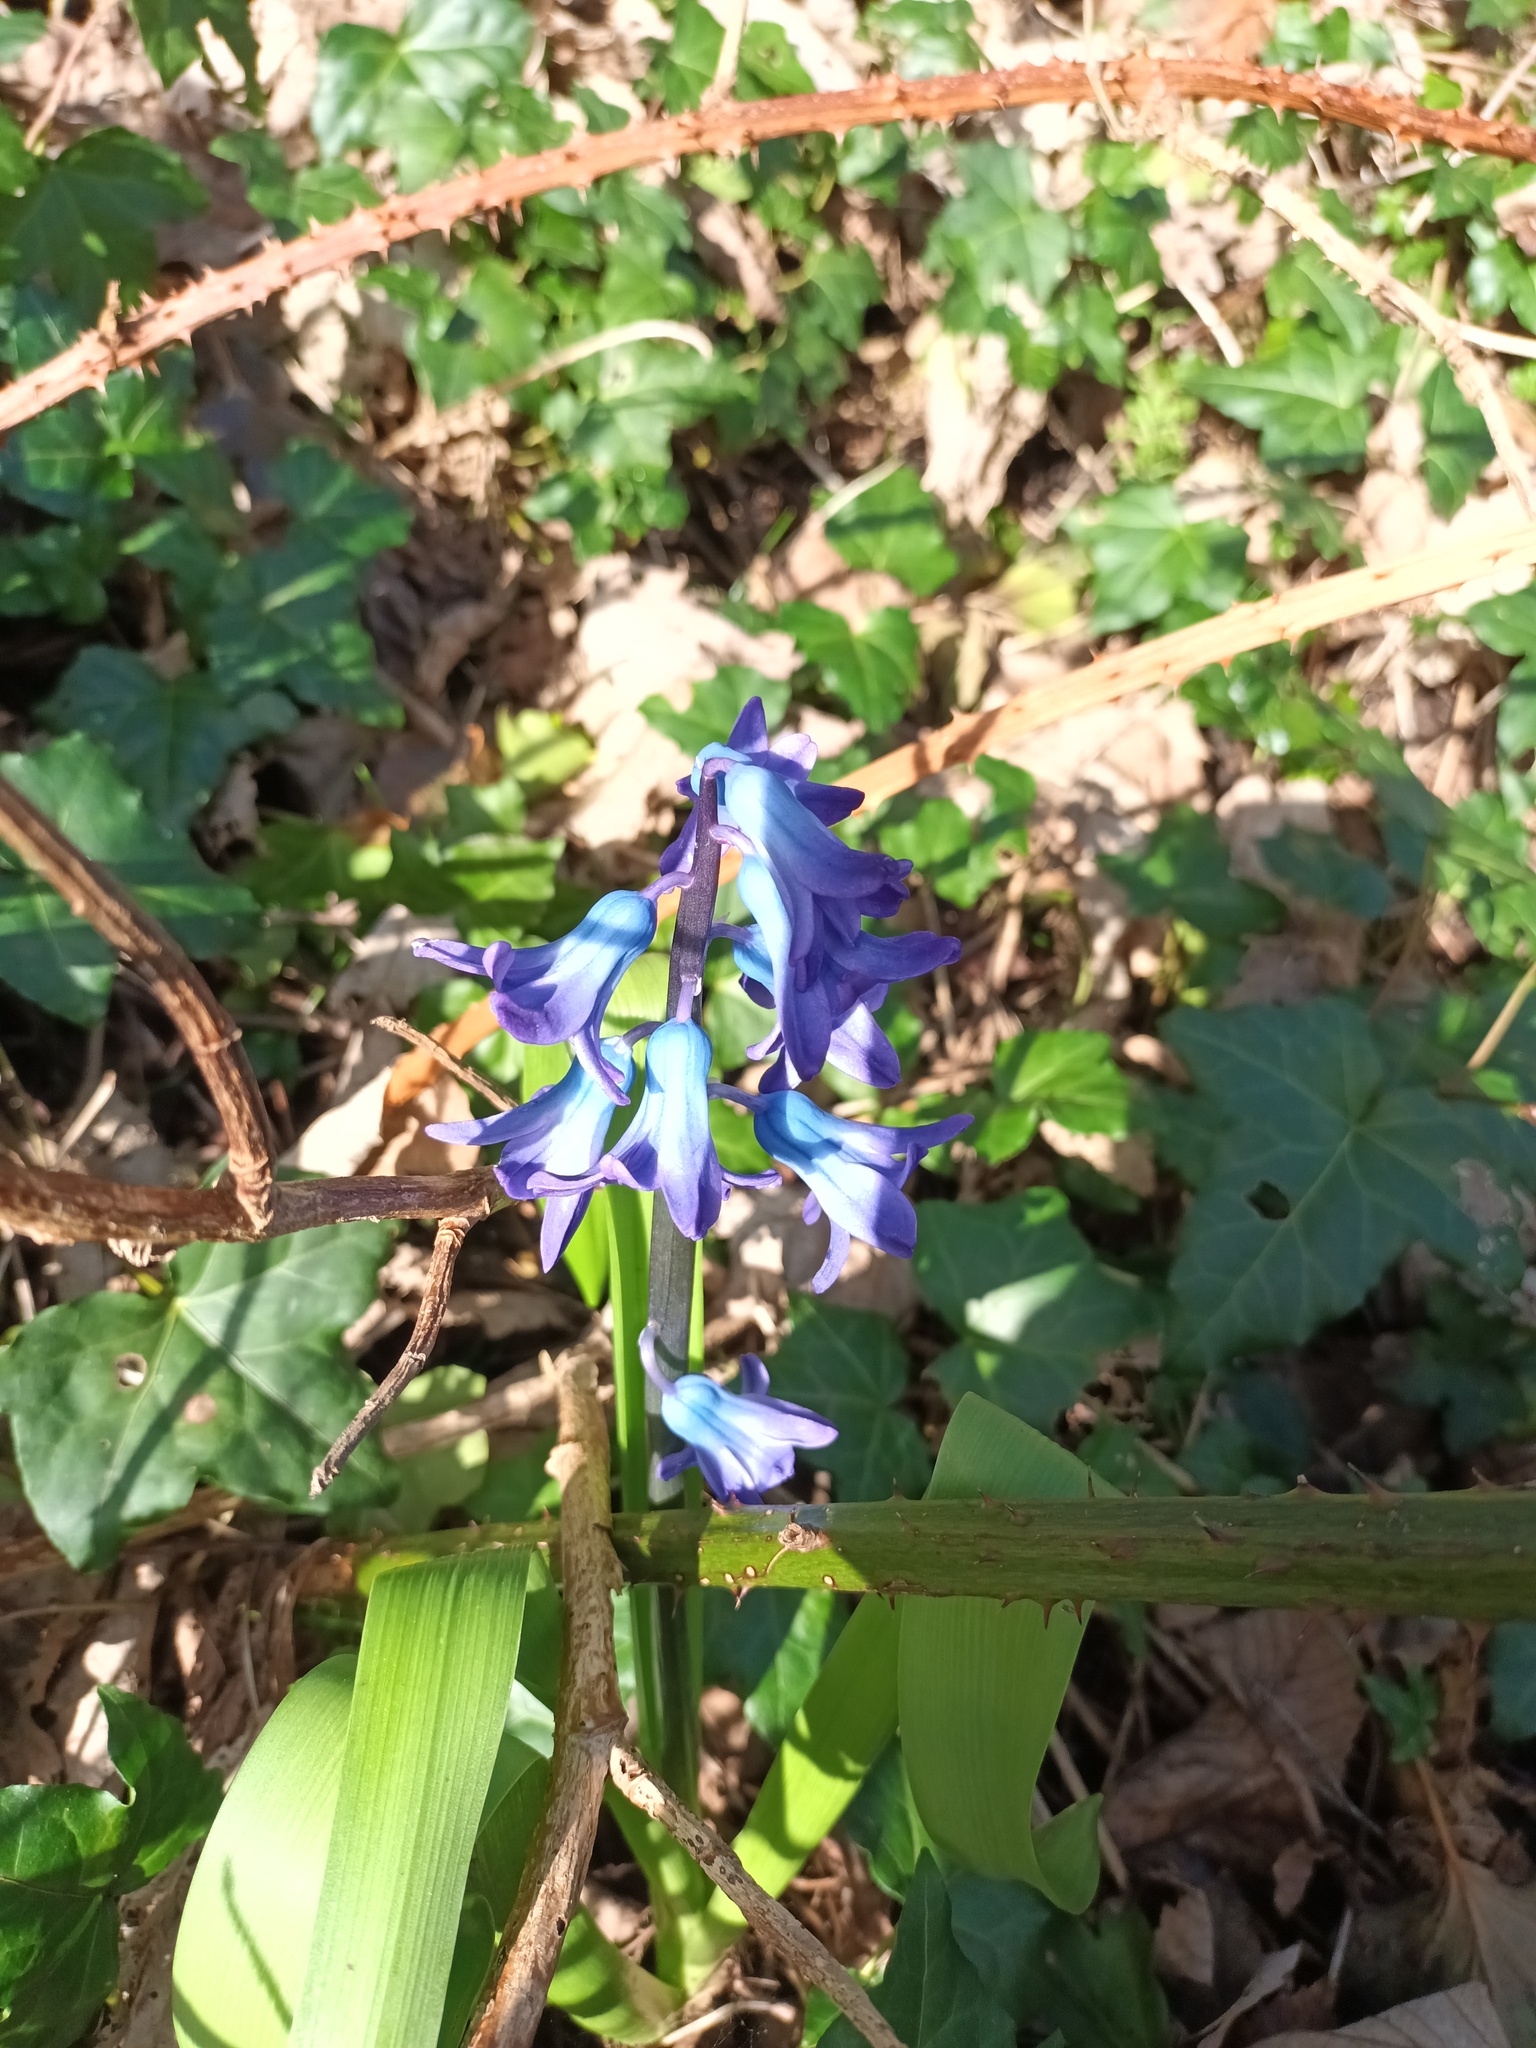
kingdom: Plantae
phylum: Tracheophyta
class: Liliopsida
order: Asparagales
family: Asparagaceae
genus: Hyacinthus
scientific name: Hyacinthus orientalis
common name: Hyacinth
